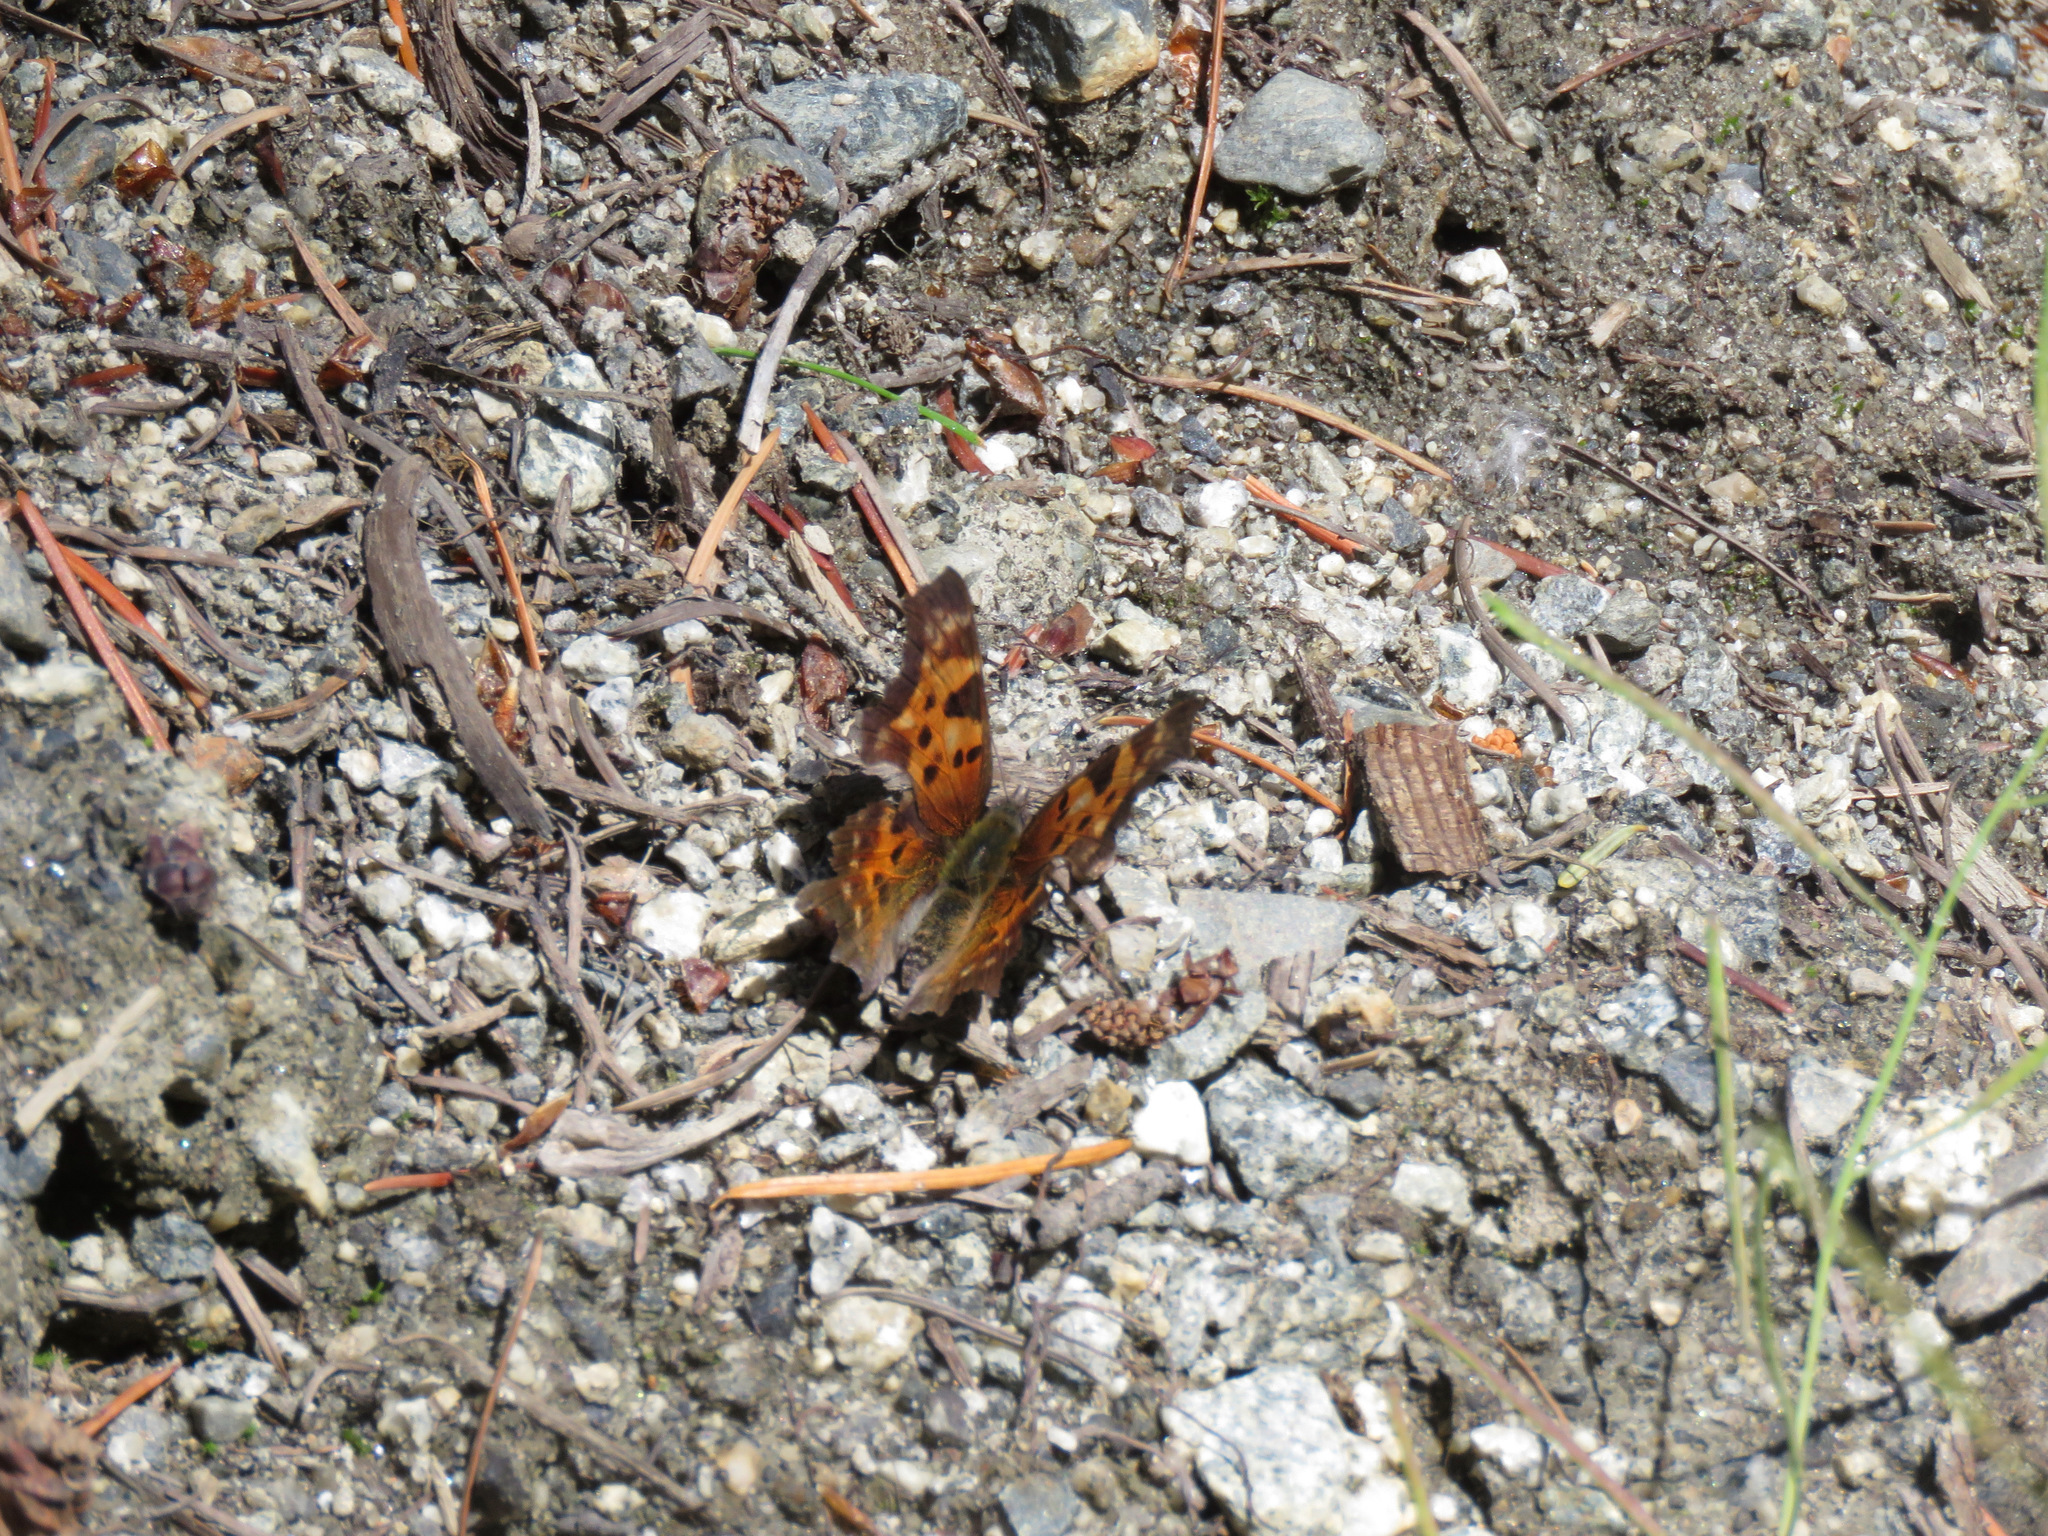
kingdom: Animalia
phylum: Arthropoda
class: Insecta
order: Lepidoptera
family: Nymphalidae
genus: Polygonia
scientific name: Polygonia faunus
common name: Green comma
